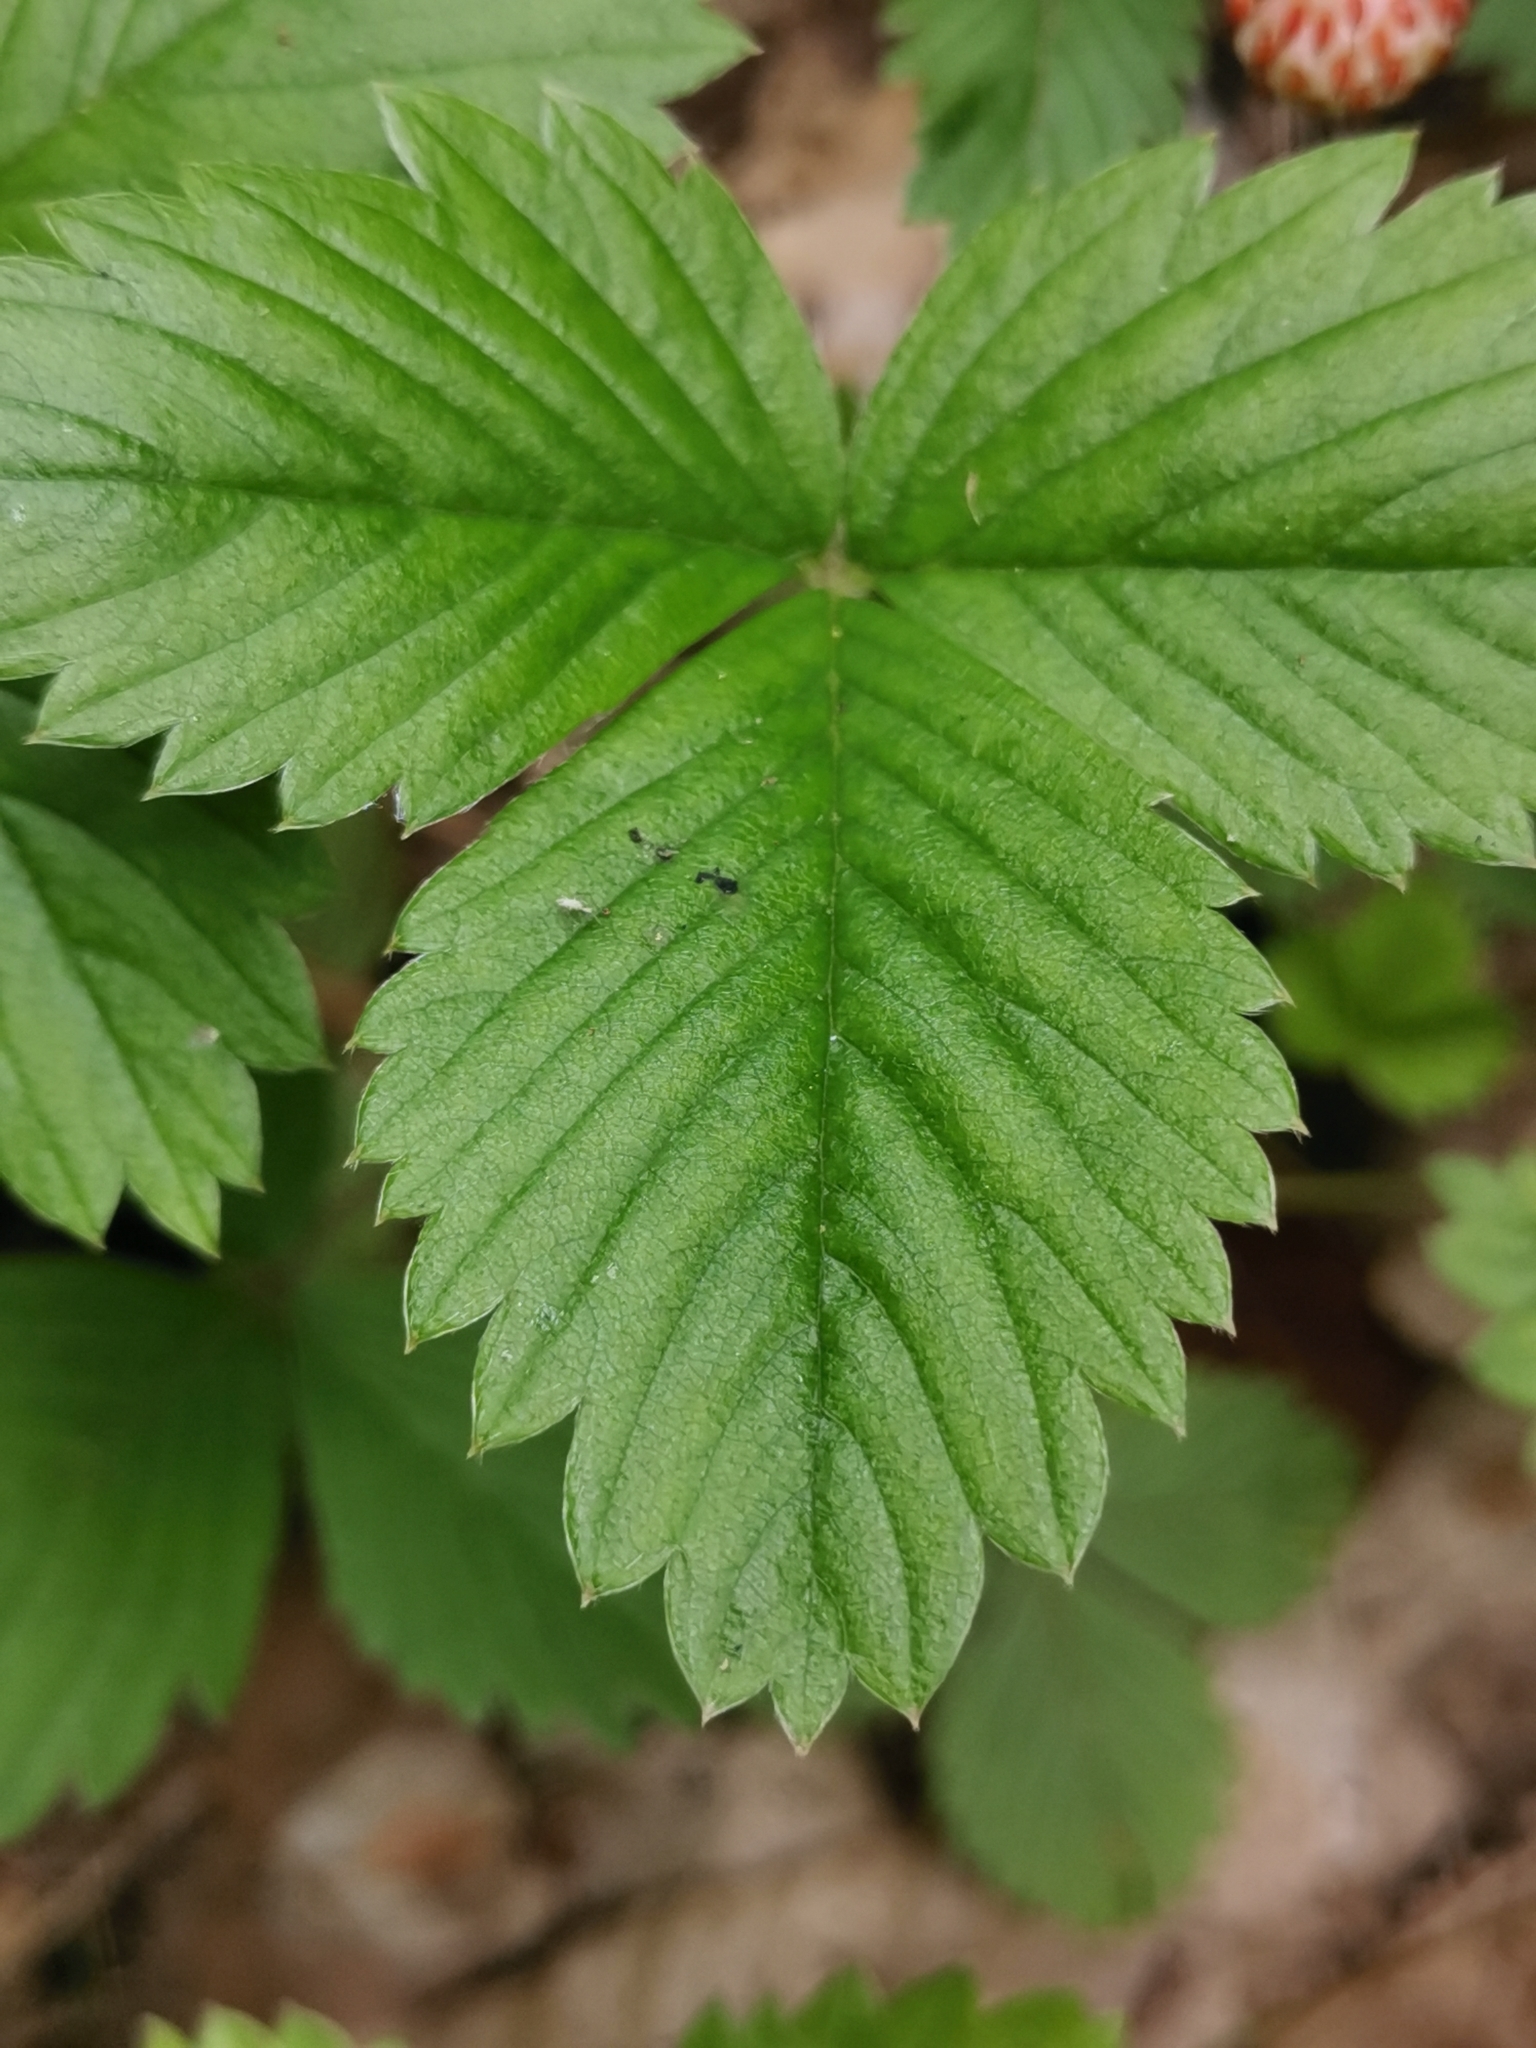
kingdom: Plantae
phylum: Tracheophyta
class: Magnoliopsida
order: Rosales
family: Rosaceae
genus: Fragaria
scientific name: Fragaria vesca
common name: Wild strawberry
